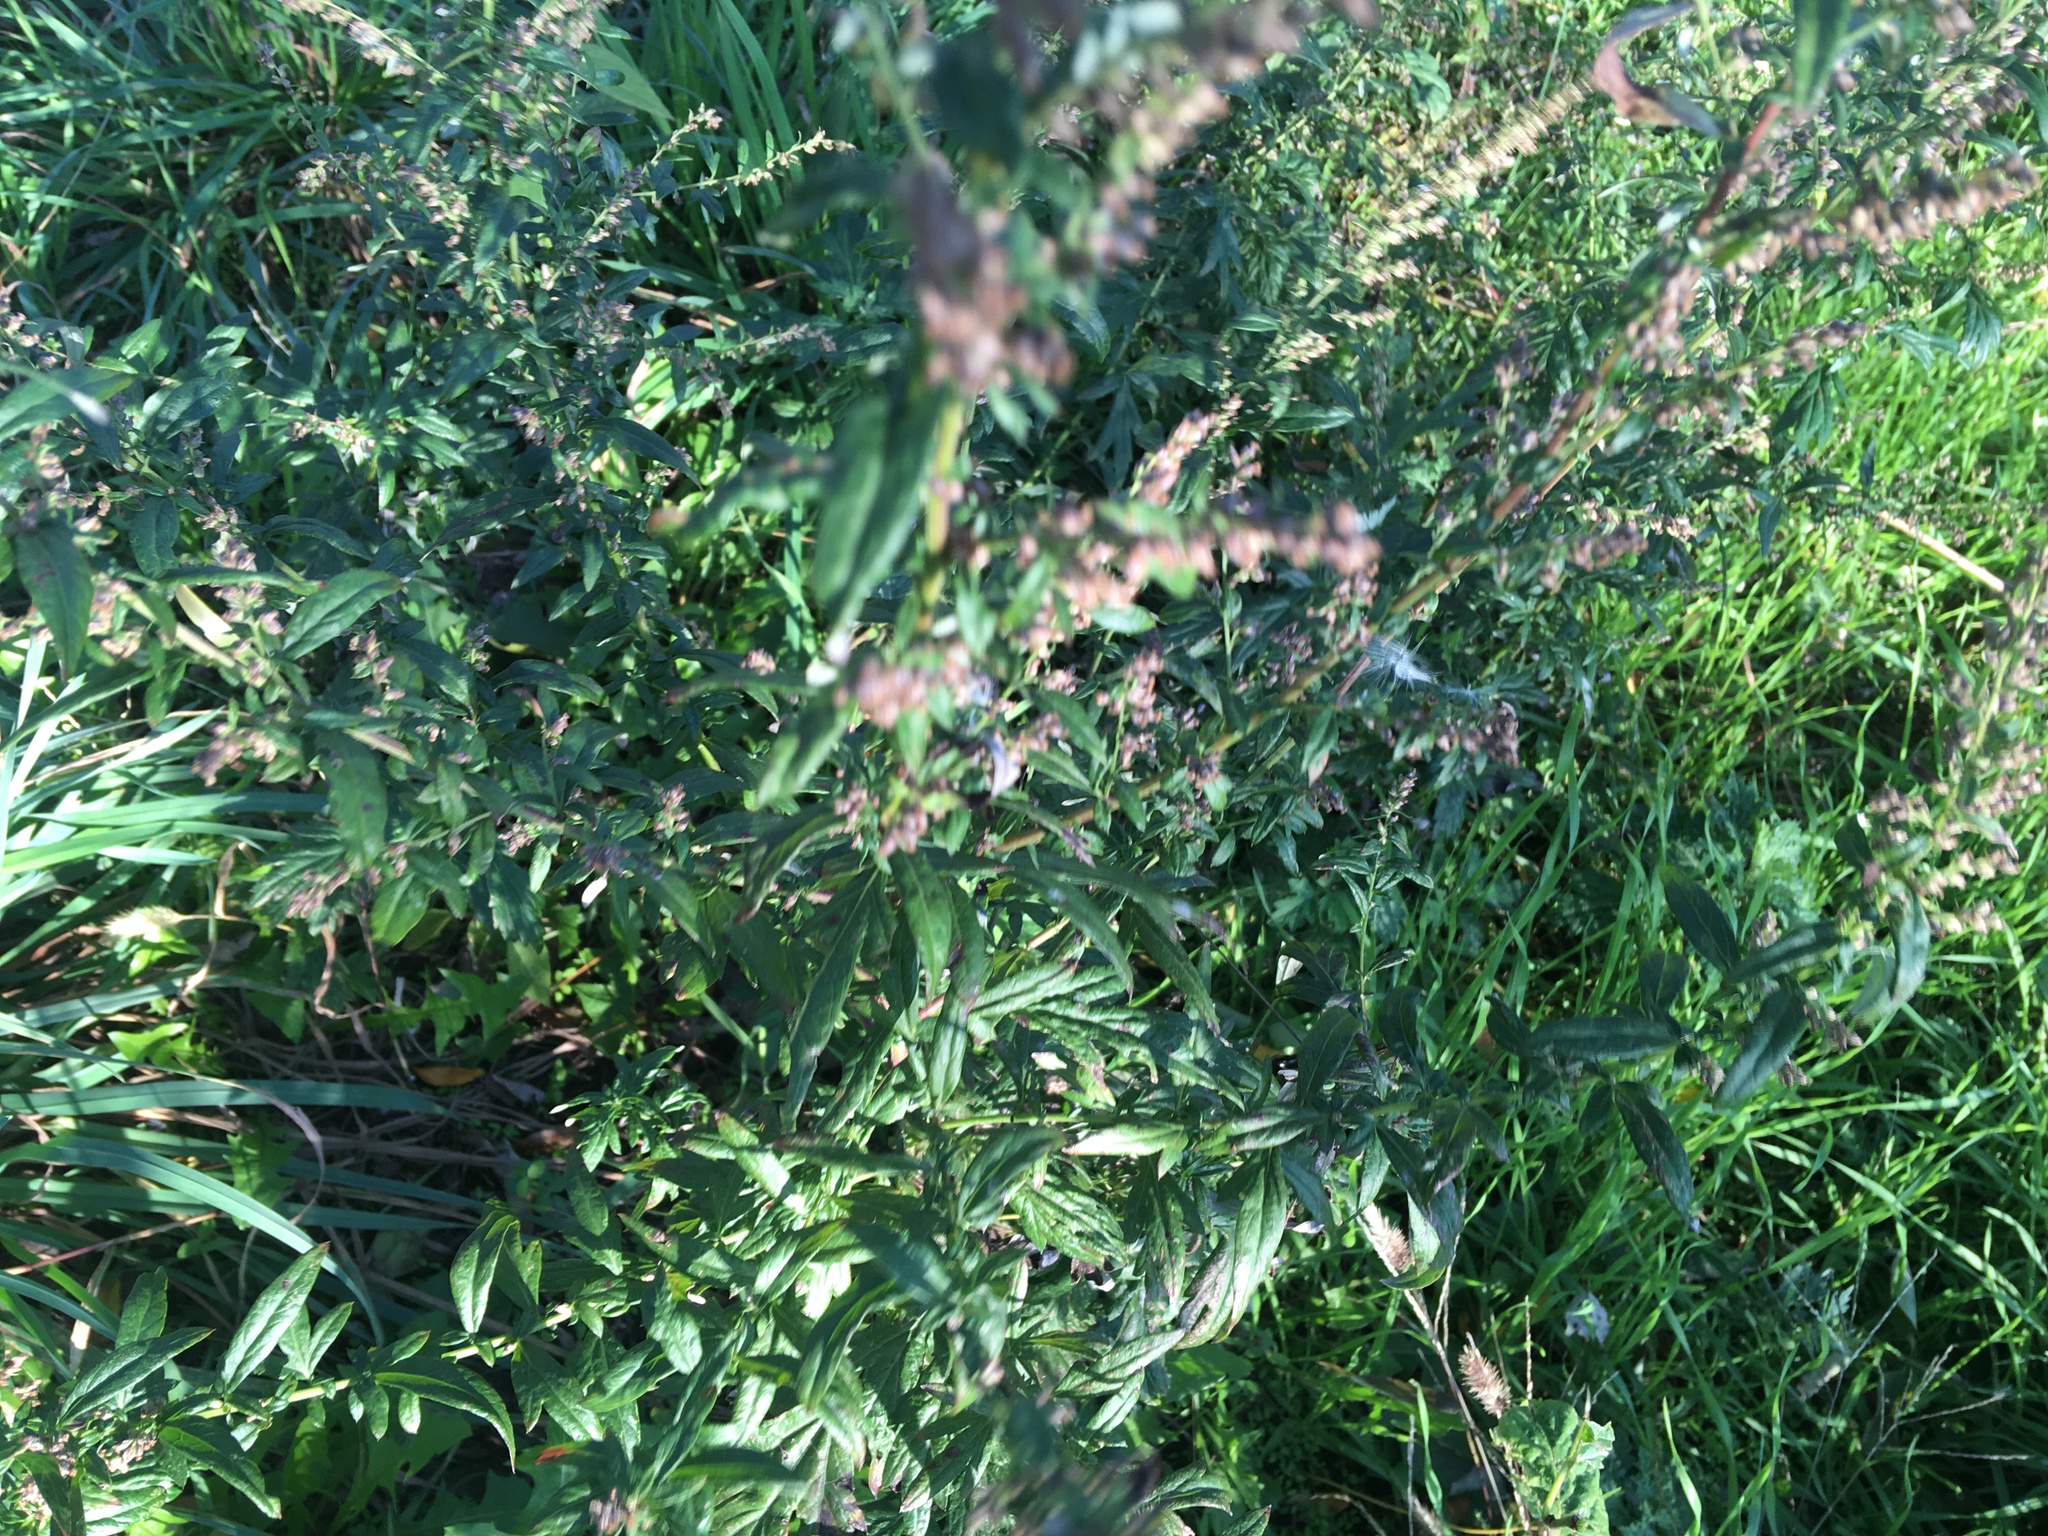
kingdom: Plantae
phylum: Tracheophyta
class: Magnoliopsida
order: Asterales
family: Asteraceae
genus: Artemisia
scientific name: Artemisia vulgaris
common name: Mugwort
